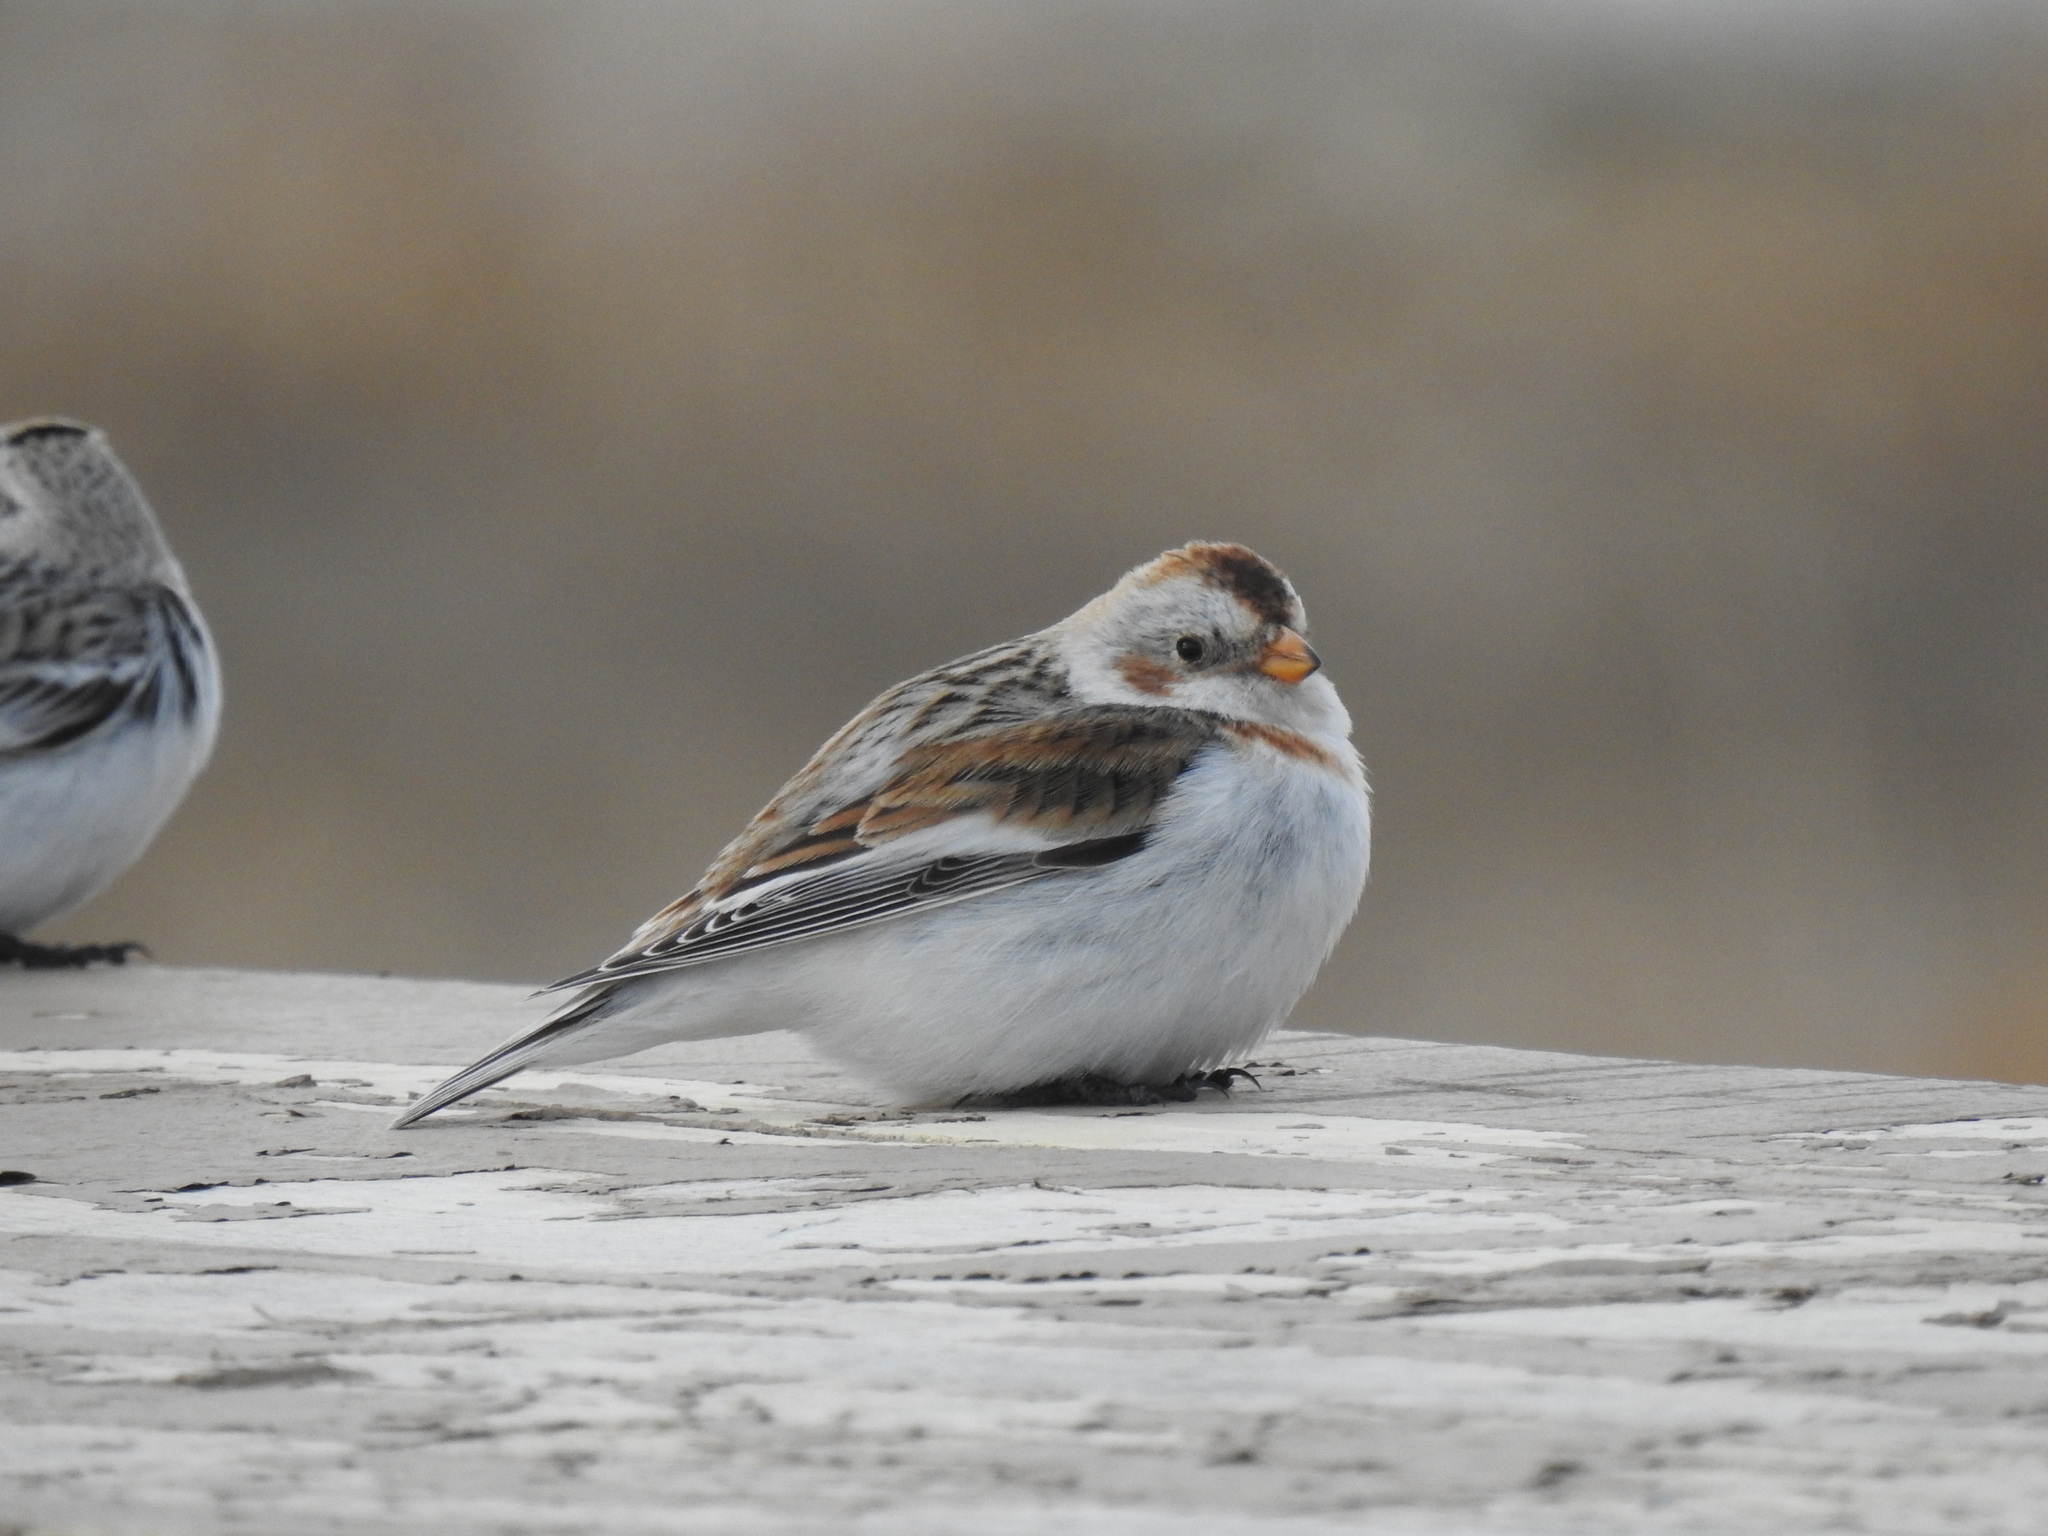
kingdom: Animalia
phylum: Chordata
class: Aves
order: Passeriformes
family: Calcariidae
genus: Plectrophenax
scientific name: Plectrophenax nivalis
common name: Snow bunting
